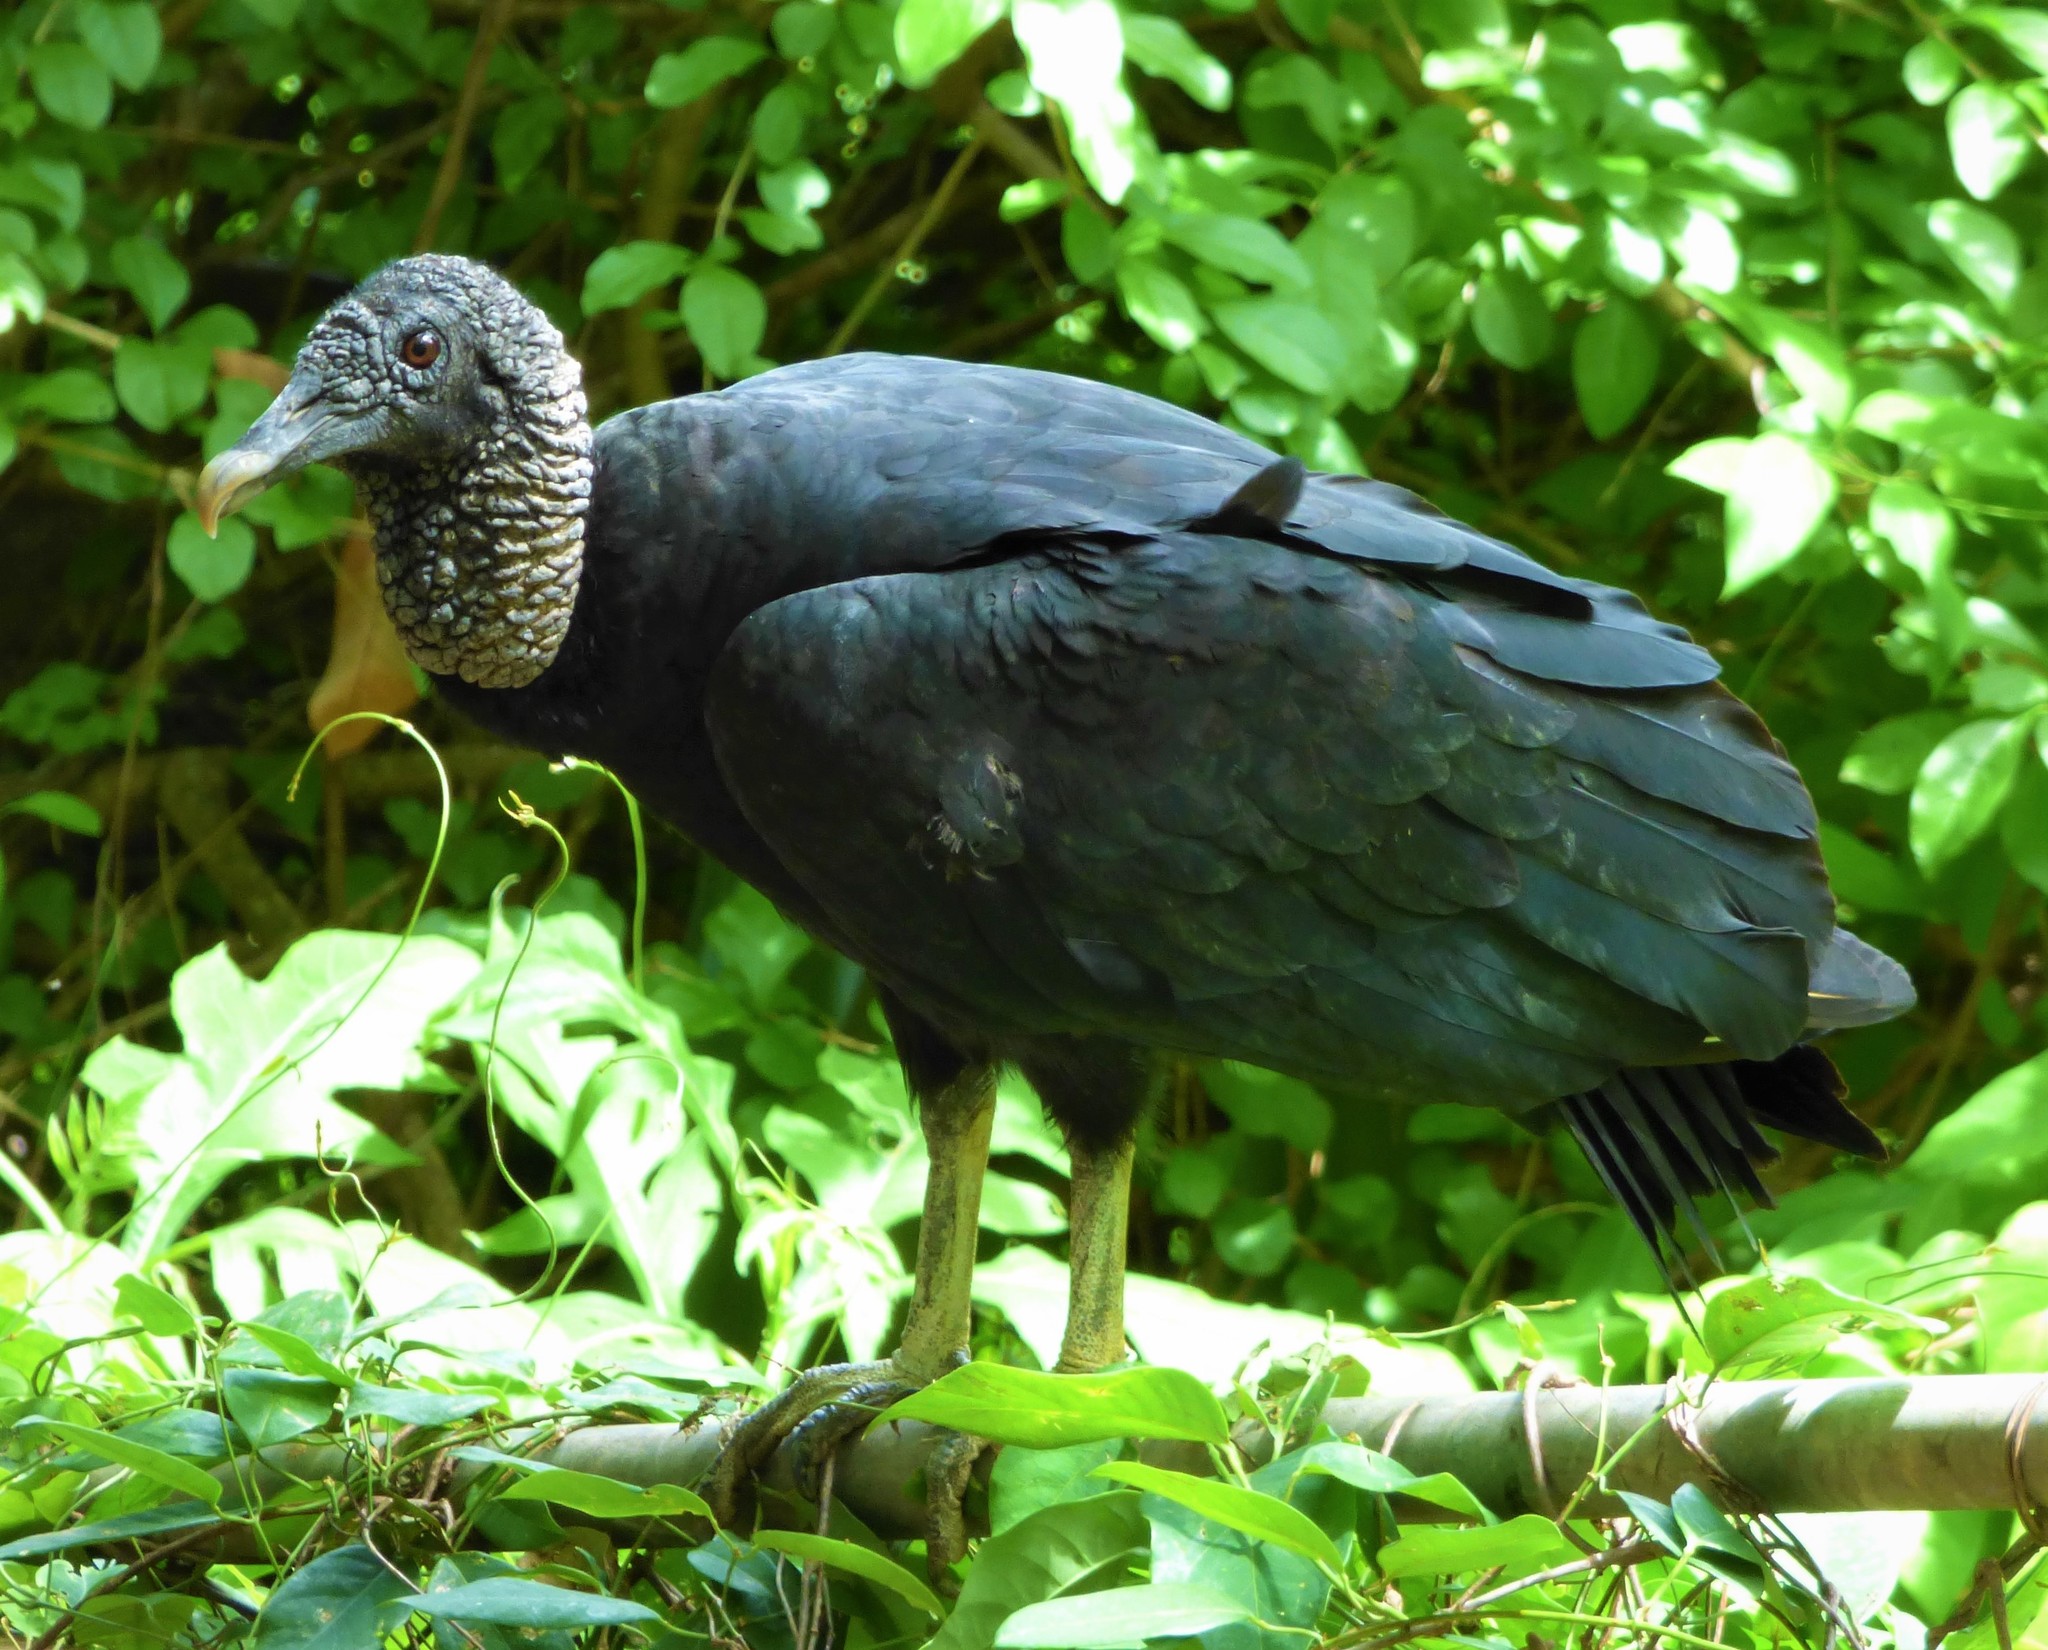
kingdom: Animalia
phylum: Chordata
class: Aves
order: Accipitriformes
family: Cathartidae
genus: Coragyps
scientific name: Coragyps atratus
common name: Black vulture
